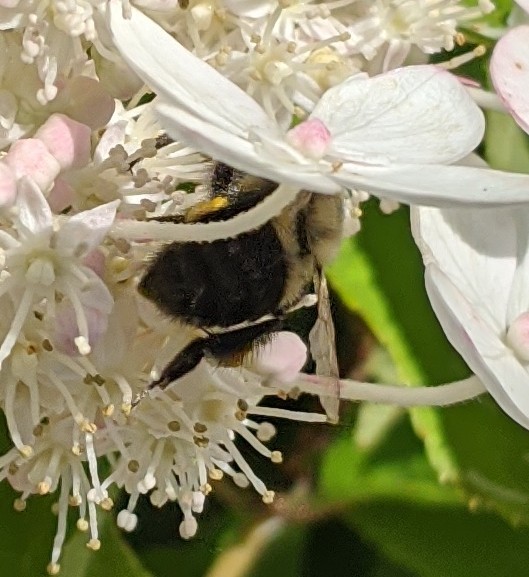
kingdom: Animalia
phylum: Arthropoda
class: Insecta
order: Hymenoptera
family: Apidae
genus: Bombus
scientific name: Bombus impatiens
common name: Common eastern bumble bee
